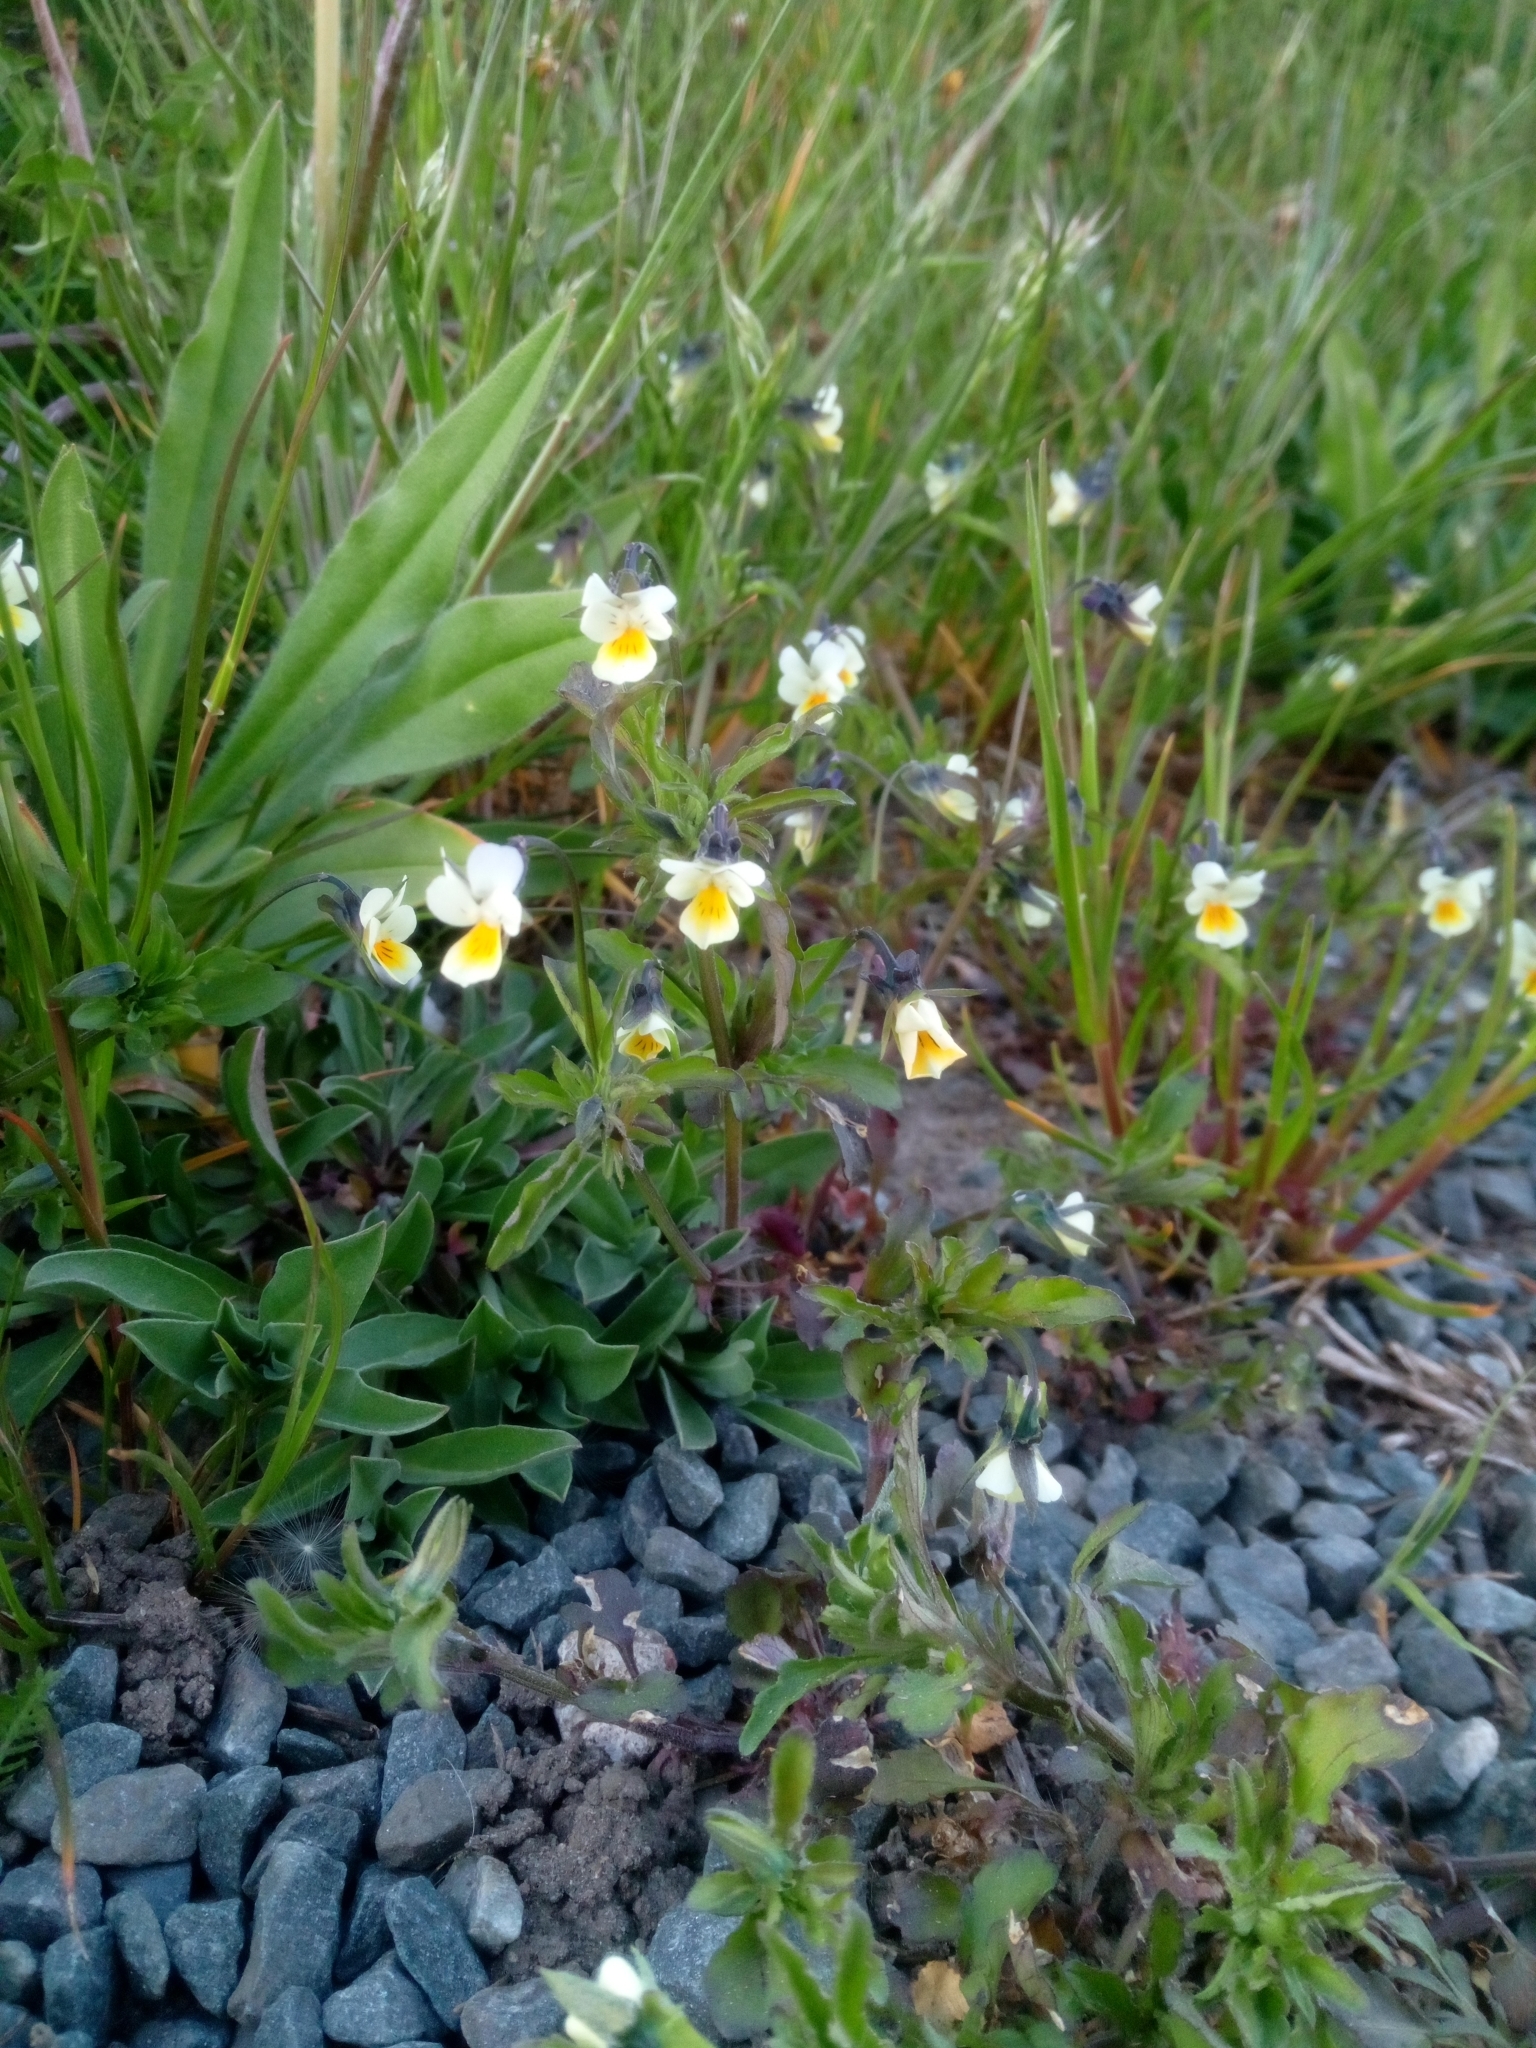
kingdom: Plantae
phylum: Tracheophyta
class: Magnoliopsida
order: Malpighiales
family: Violaceae
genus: Viola
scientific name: Viola arvensis
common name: Field pansy
